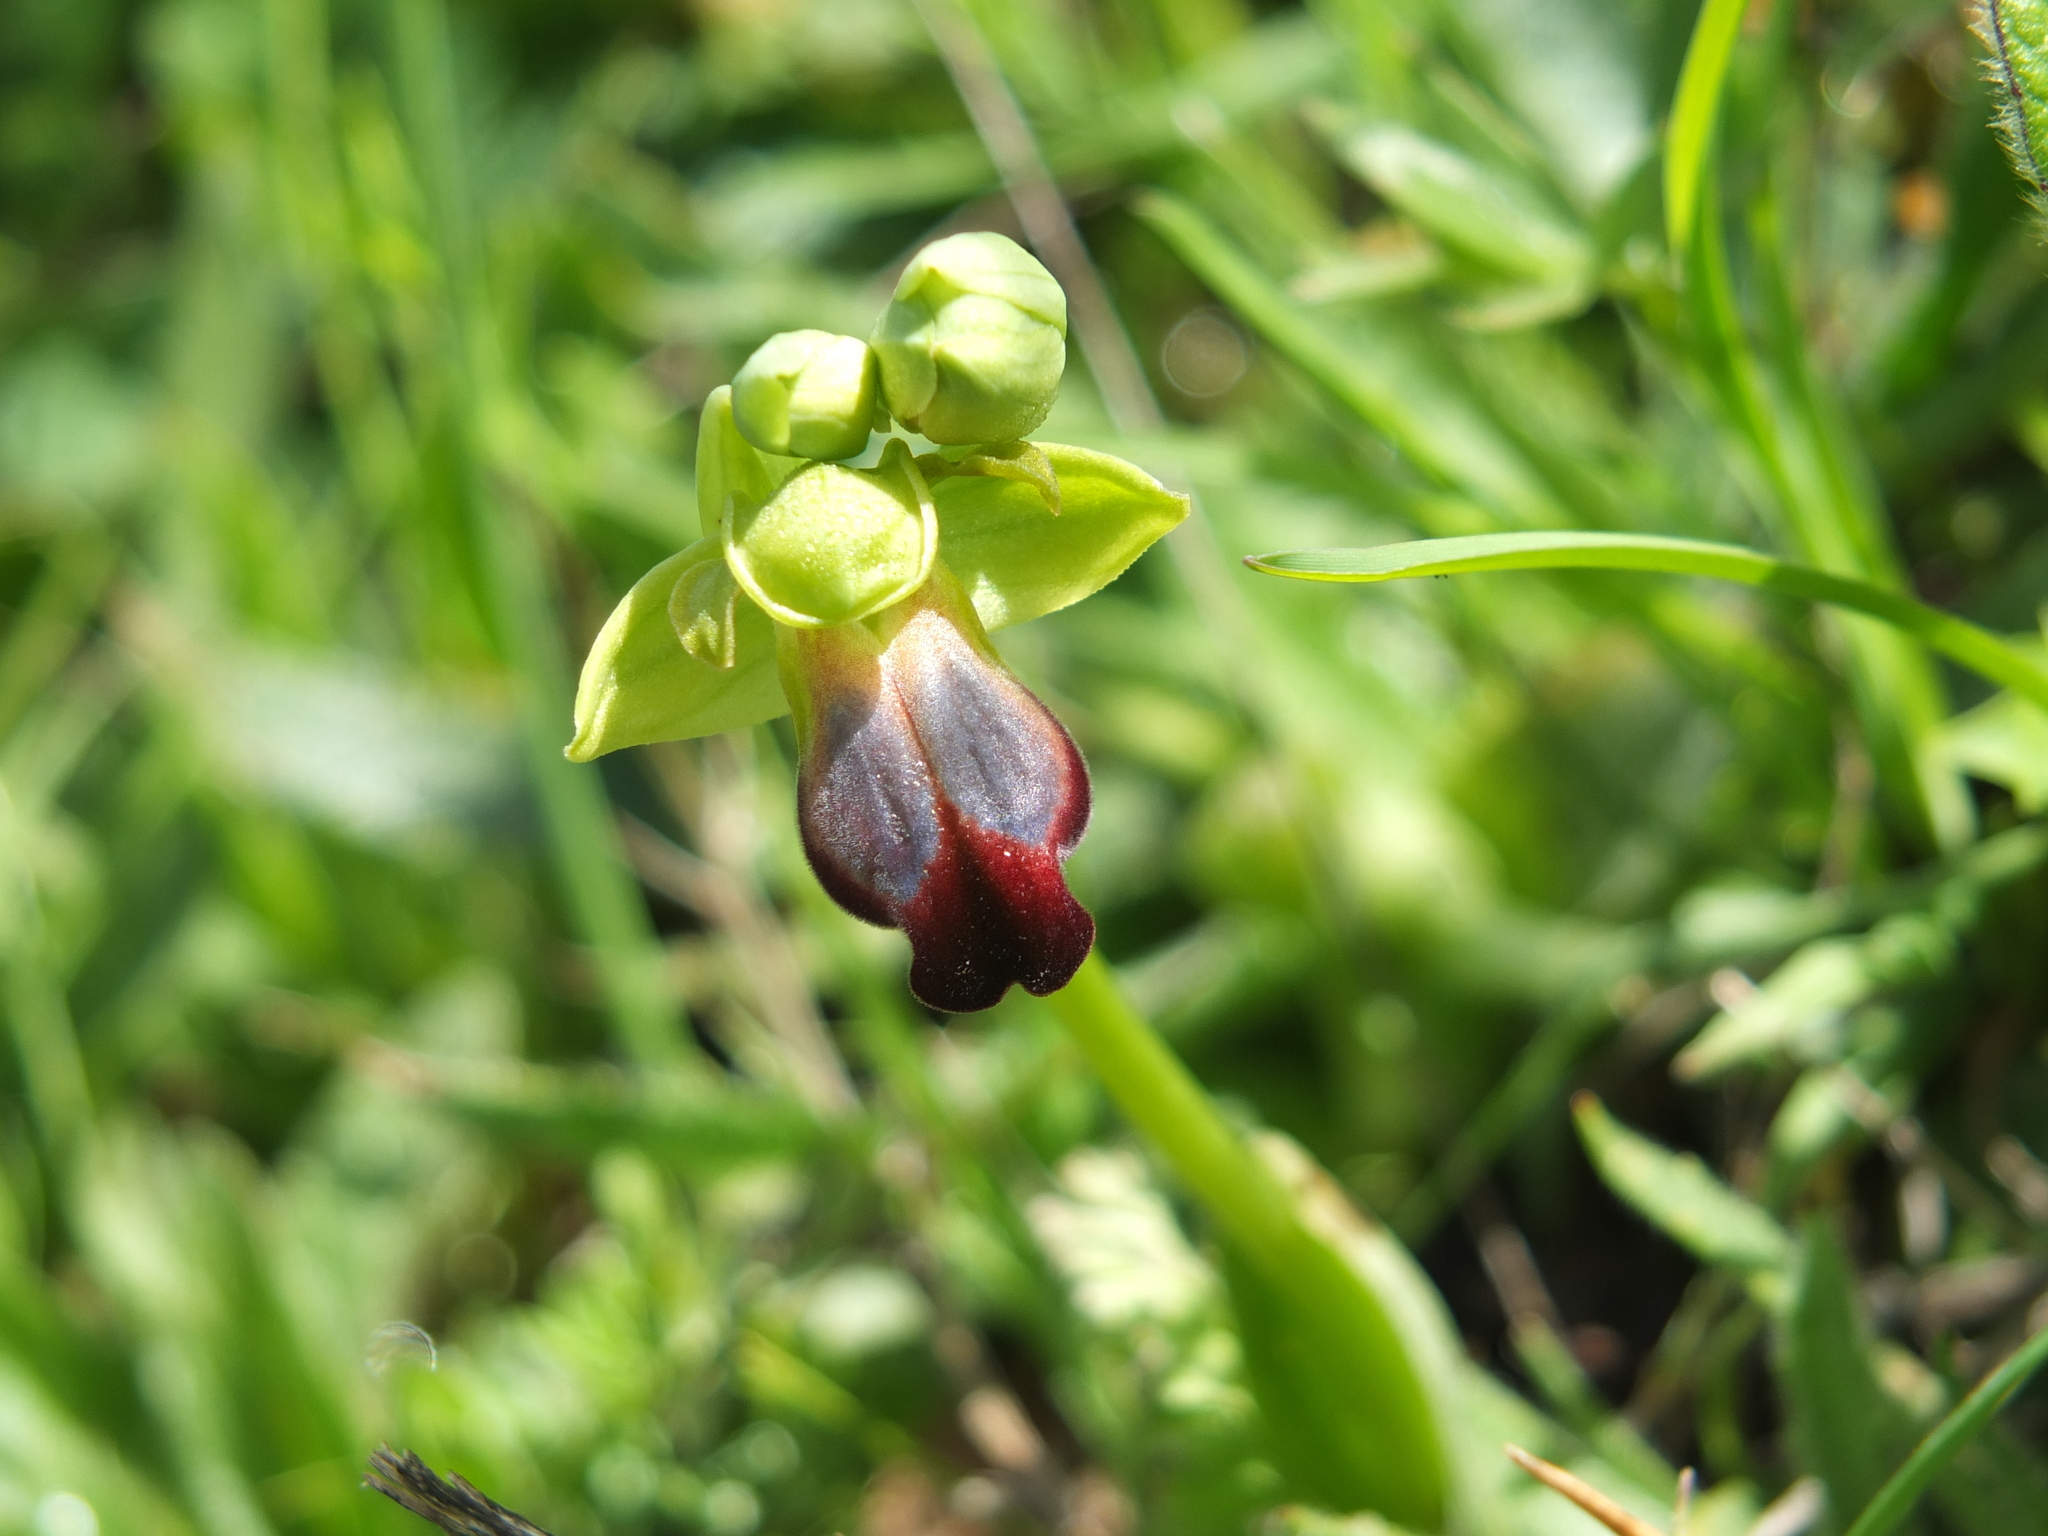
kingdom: Plantae
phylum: Tracheophyta
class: Liliopsida
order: Asparagales
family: Orchidaceae
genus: Ophrys
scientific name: Ophrys fusca
